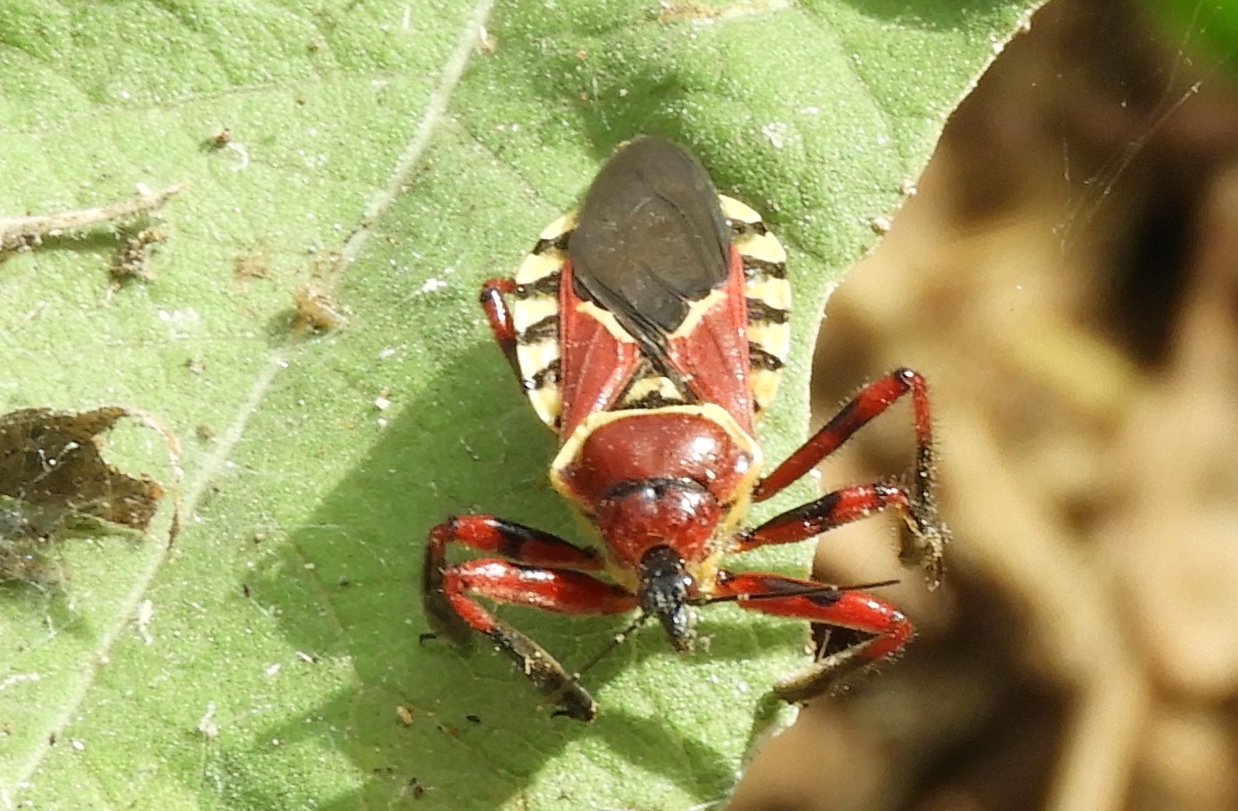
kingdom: Animalia
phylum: Arthropoda
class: Insecta
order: Hemiptera
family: Reduviidae
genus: Apiomerus
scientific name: Apiomerus flaviventris
